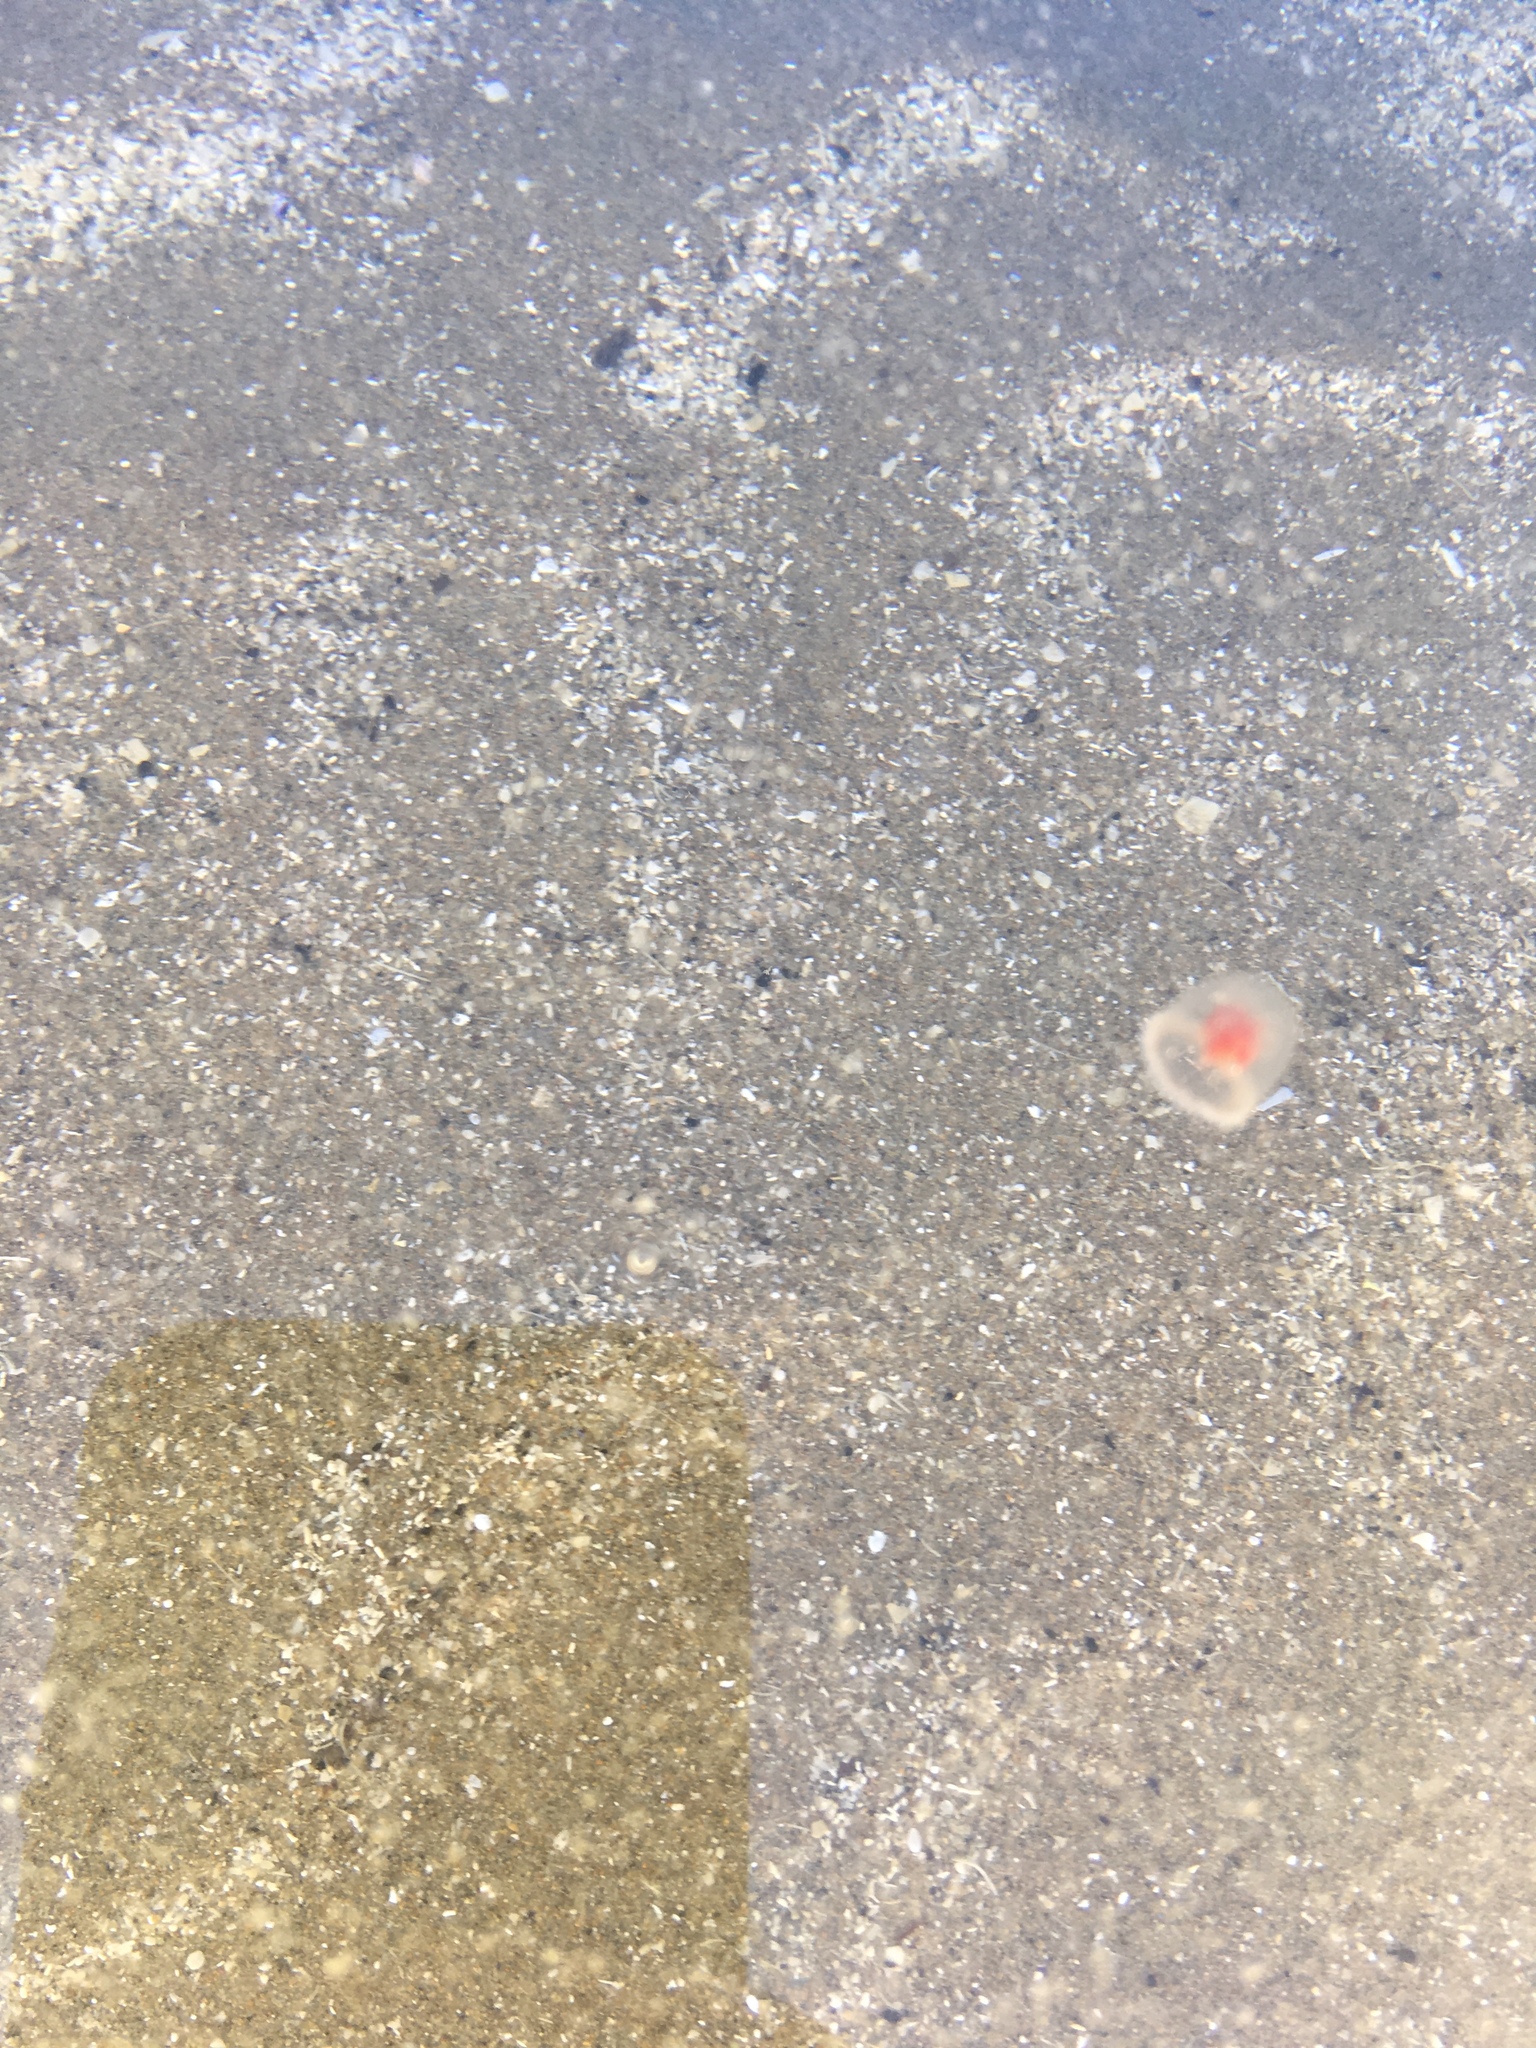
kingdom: Animalia
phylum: Cnidaria
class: Hydrozoa
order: Anthoathecata
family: Oceaniidae
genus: Turritopsis
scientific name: Turritopsis rubra
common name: Crimson jelly
